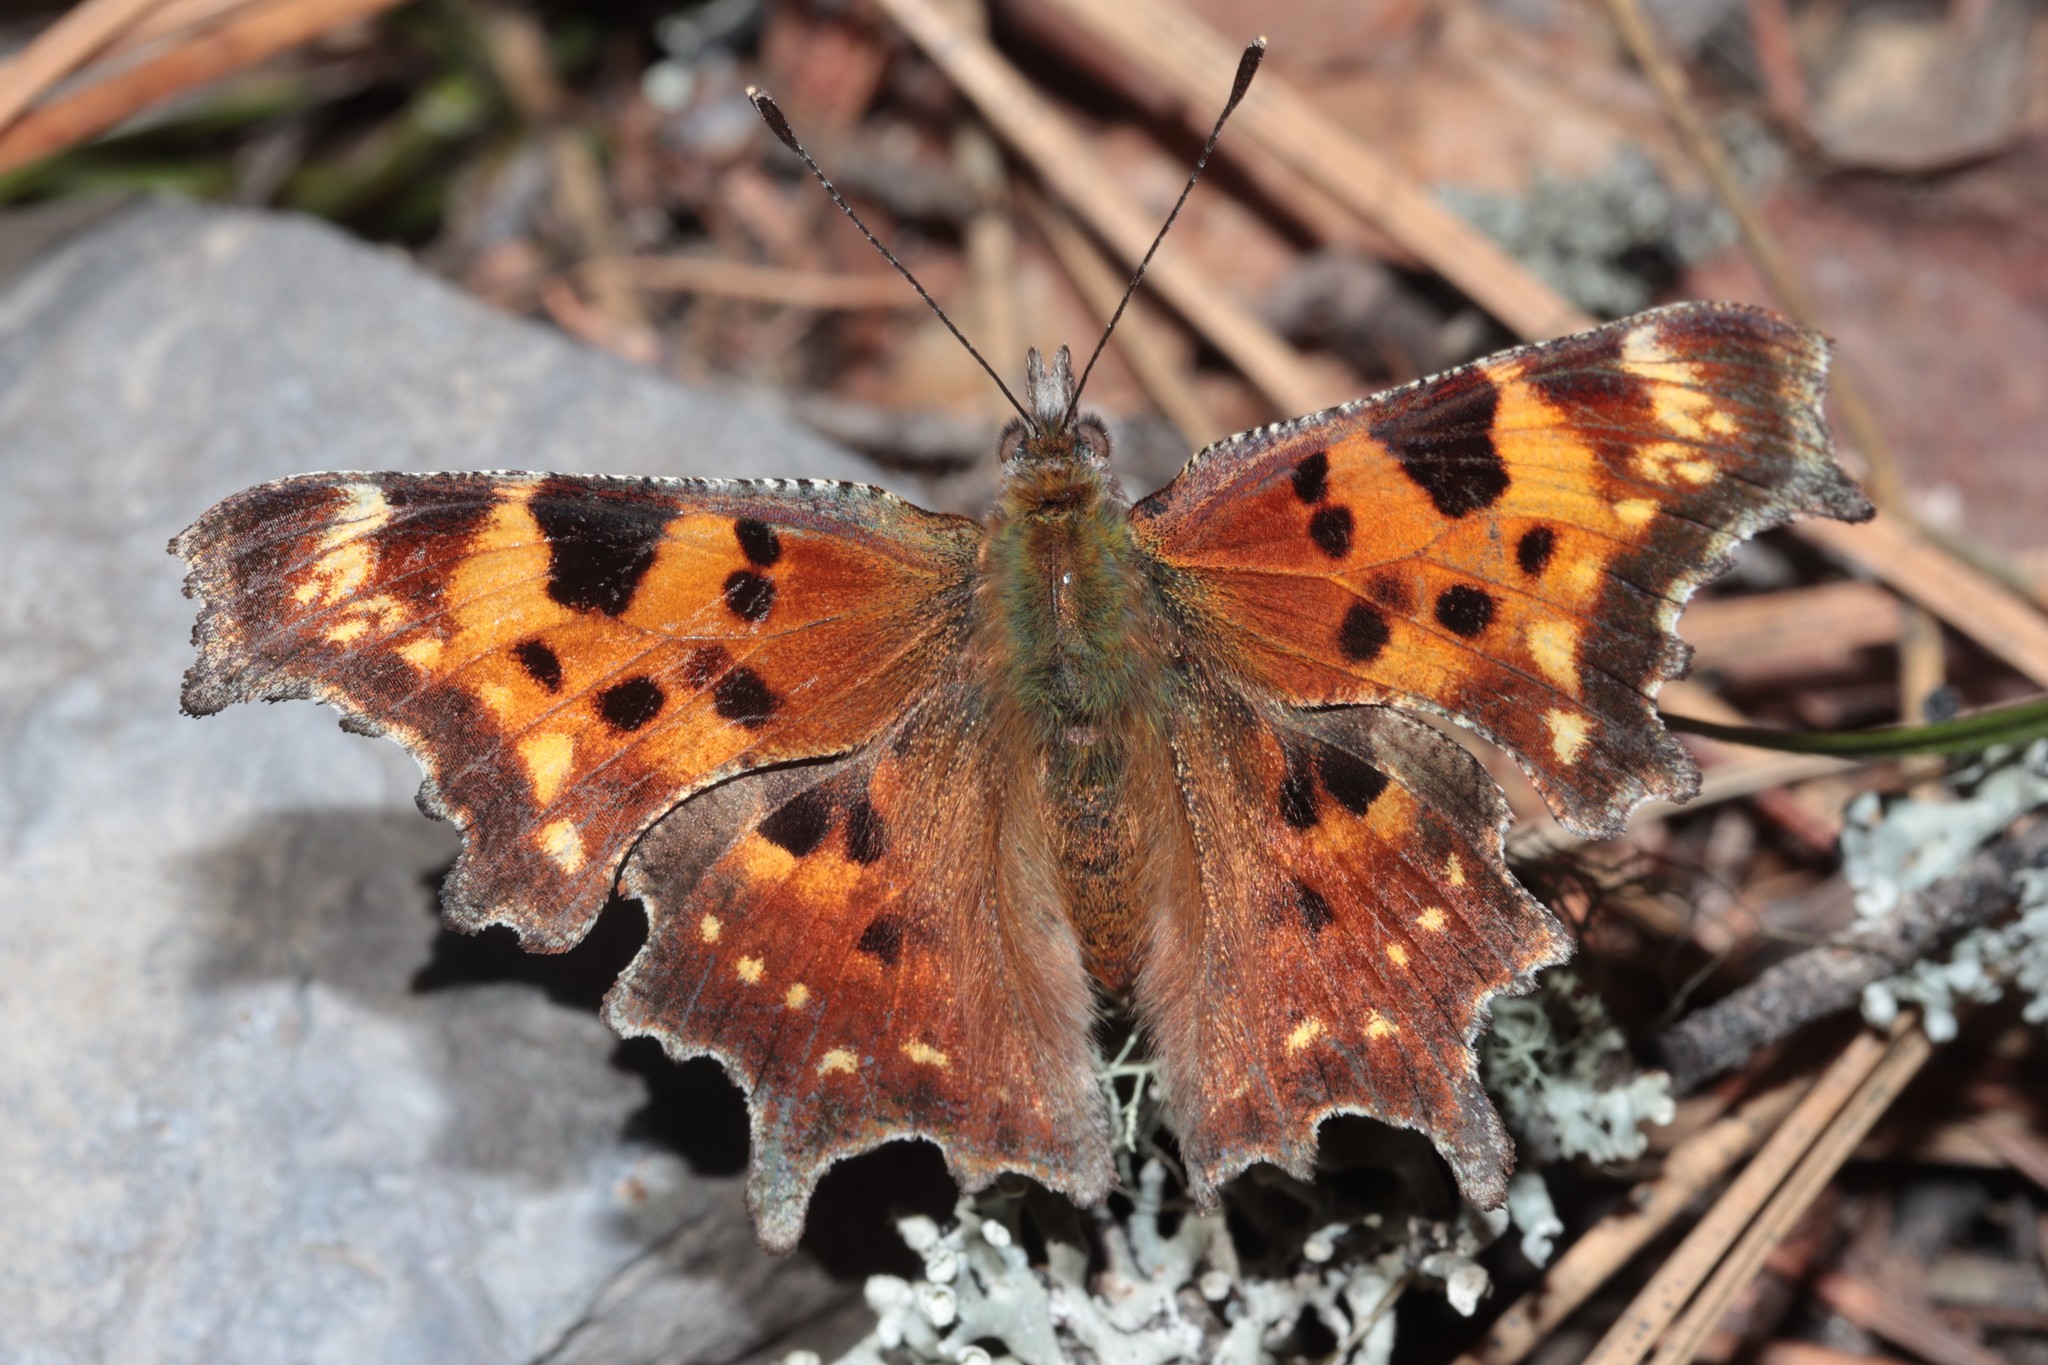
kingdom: Animalia
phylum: Arthropoda
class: Insecta
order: Lepidoptera
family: Nymphalidae
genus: Polygonia
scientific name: Polygonia faunus
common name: Green comma
